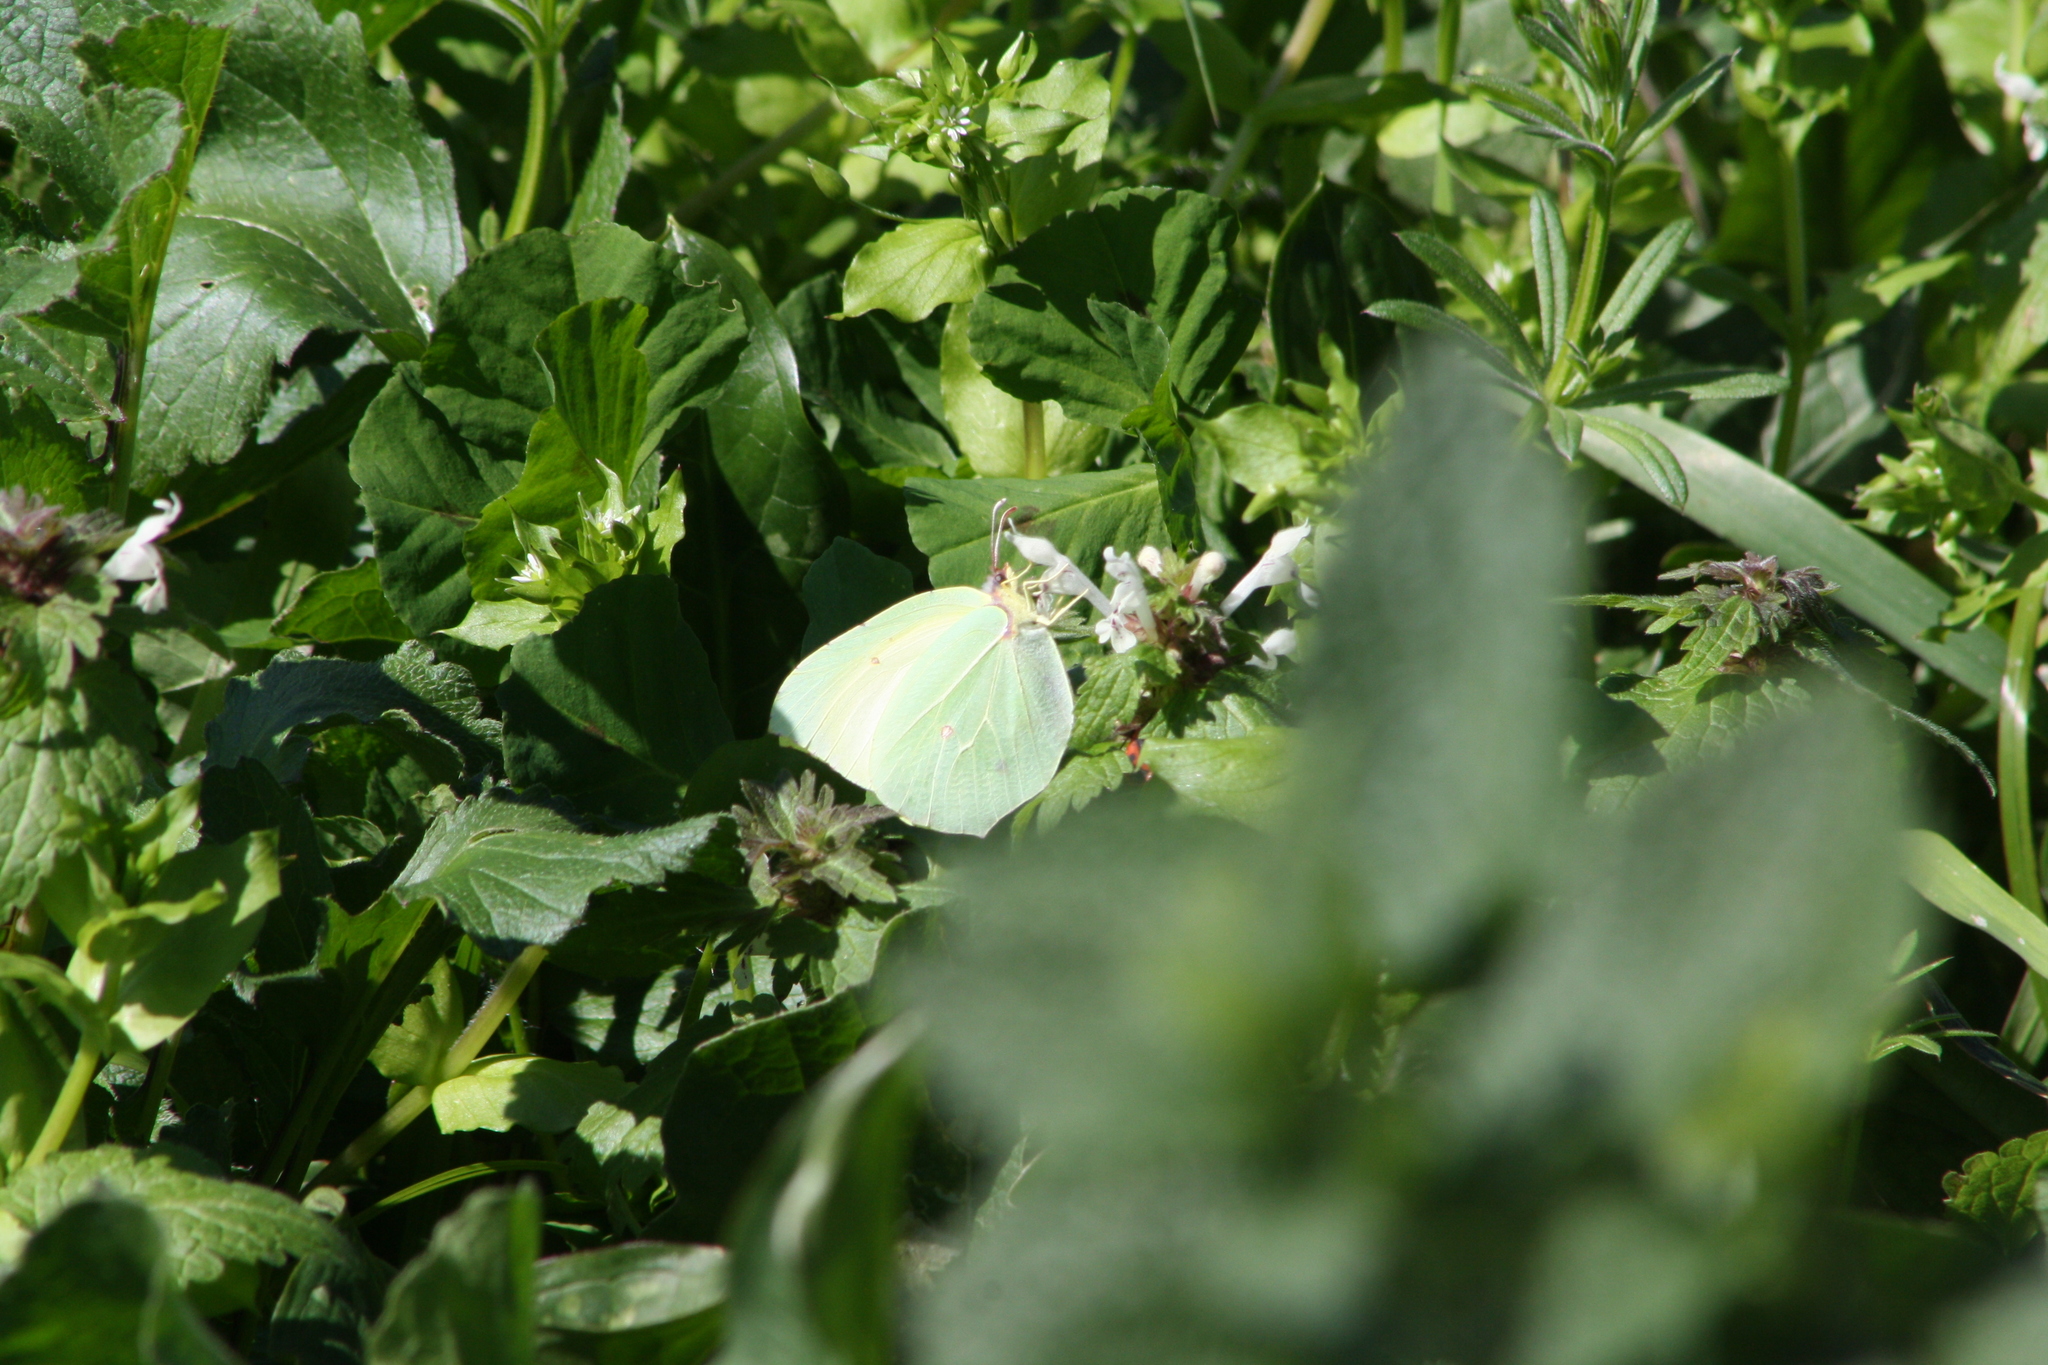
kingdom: Animalia
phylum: Arthropoda
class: Insecta
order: Lepidoptera
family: Pieridae
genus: Gonepteryx
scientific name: Gonepteryx cleopatra
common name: Cleopatra
